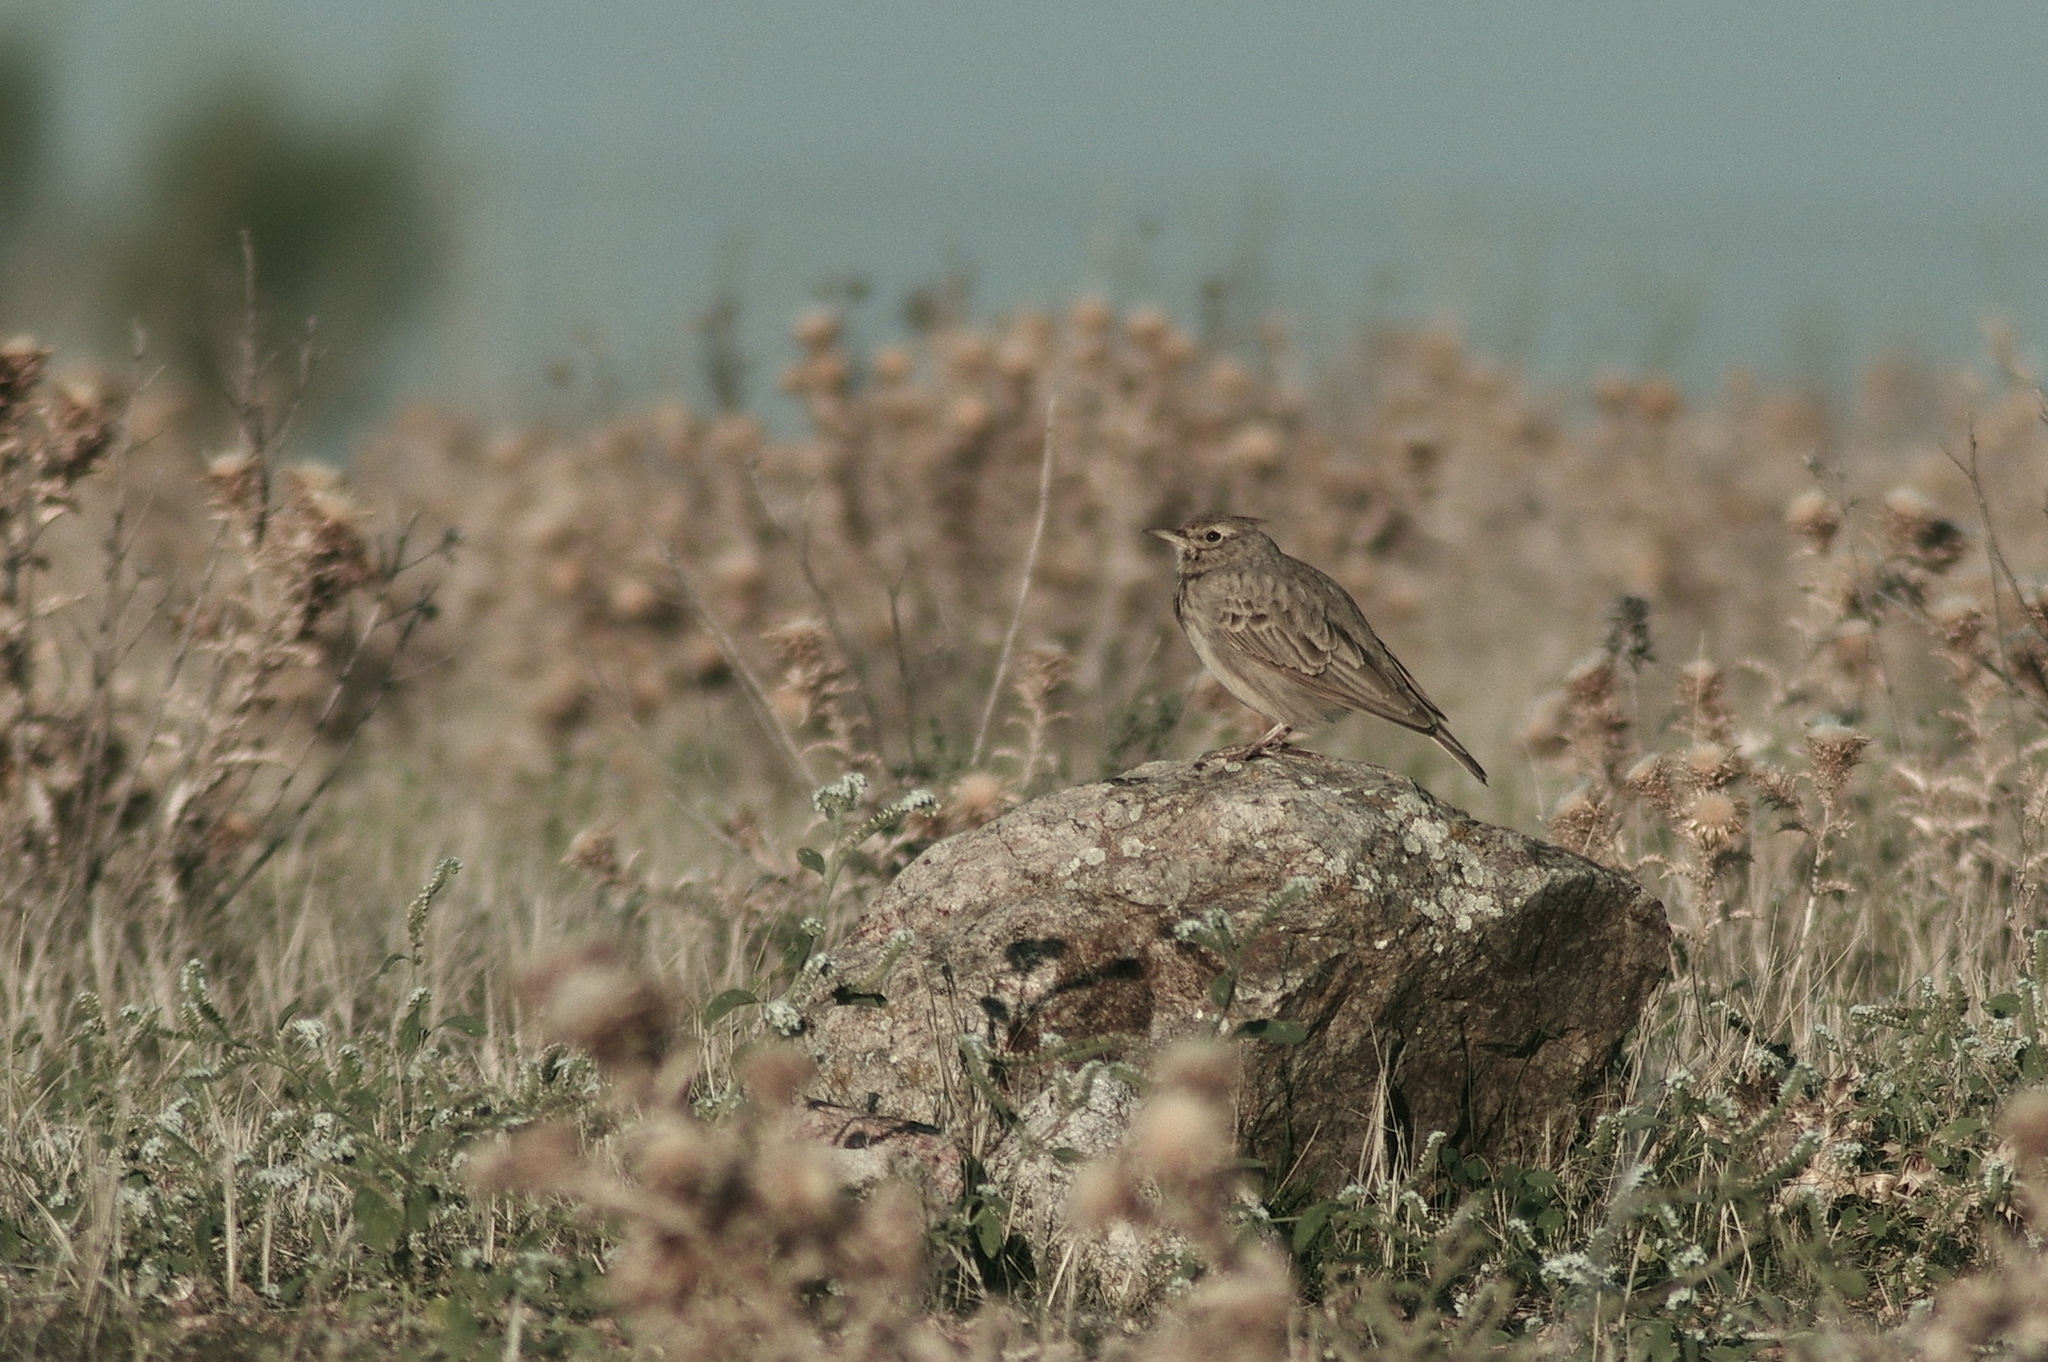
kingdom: Animalia
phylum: Chordata
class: Aves
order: Passeriformes
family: Alaudidae
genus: Galerida
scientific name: Galerida cristata
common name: Crested lark
